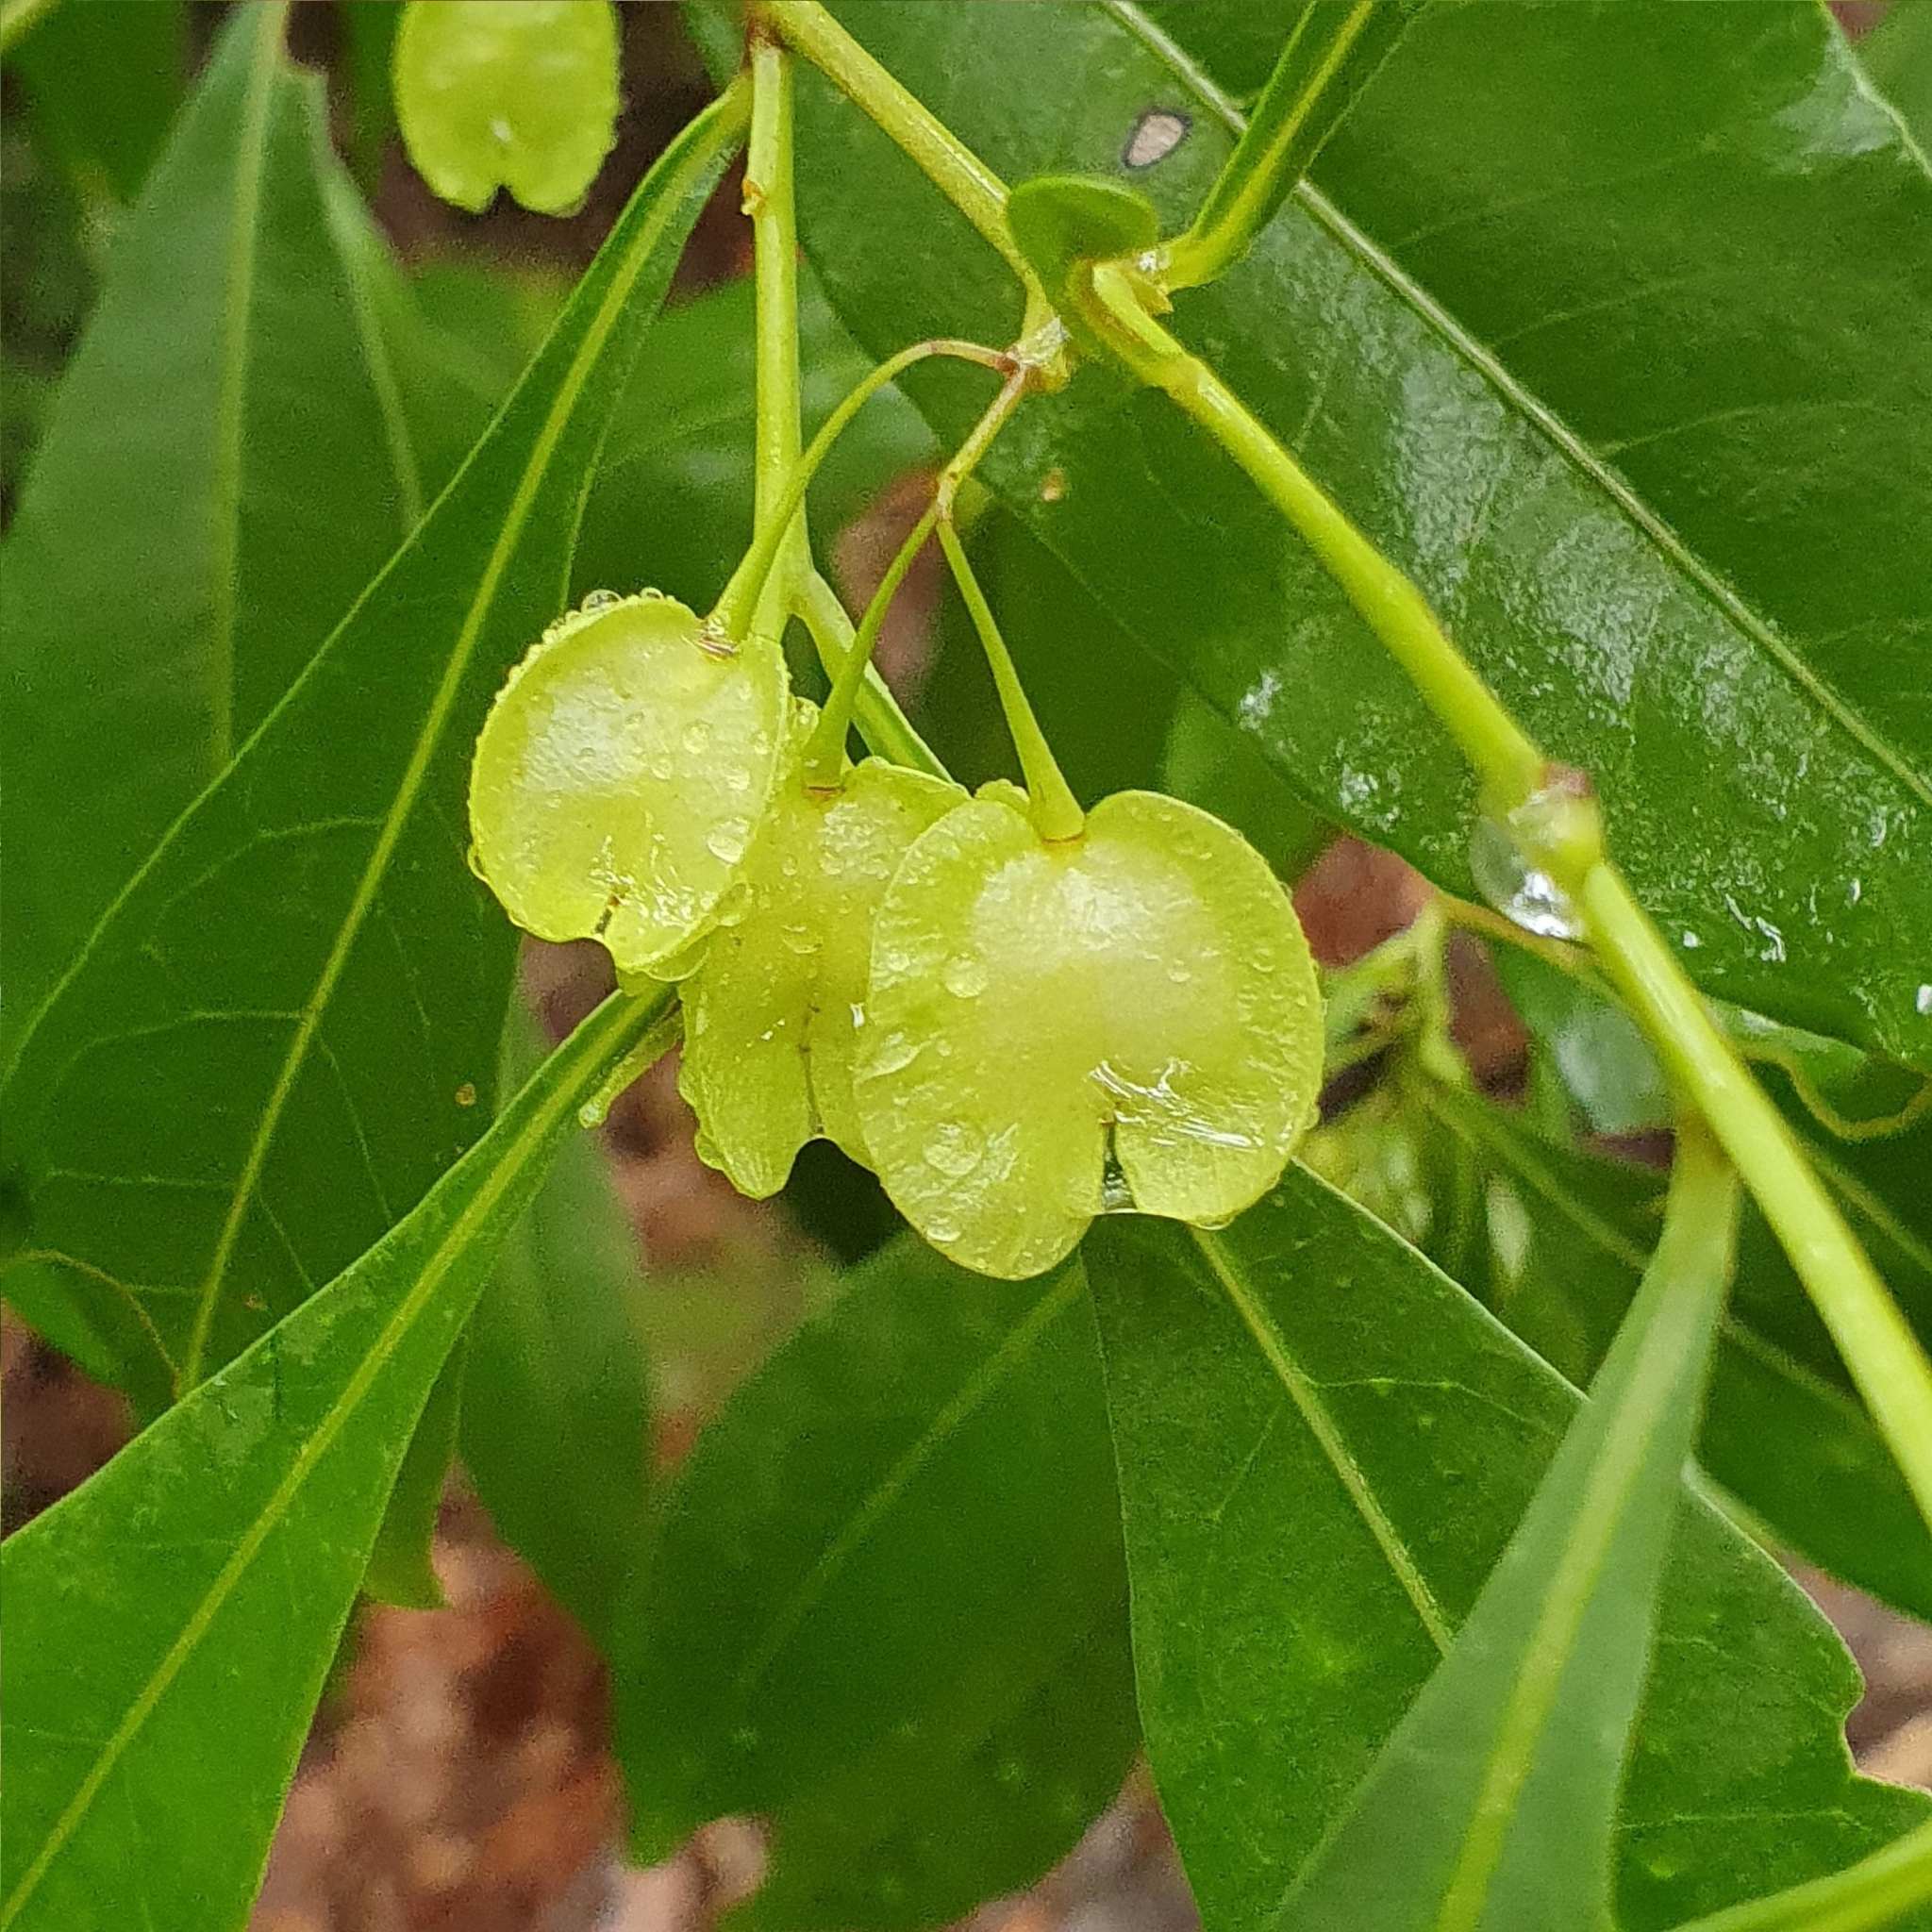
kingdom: Plantae
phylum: Tracheophyta
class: Magnoliopsida
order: Sapindales
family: Sapindaceae
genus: Dodonaea
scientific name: Dodonaea triquetra
